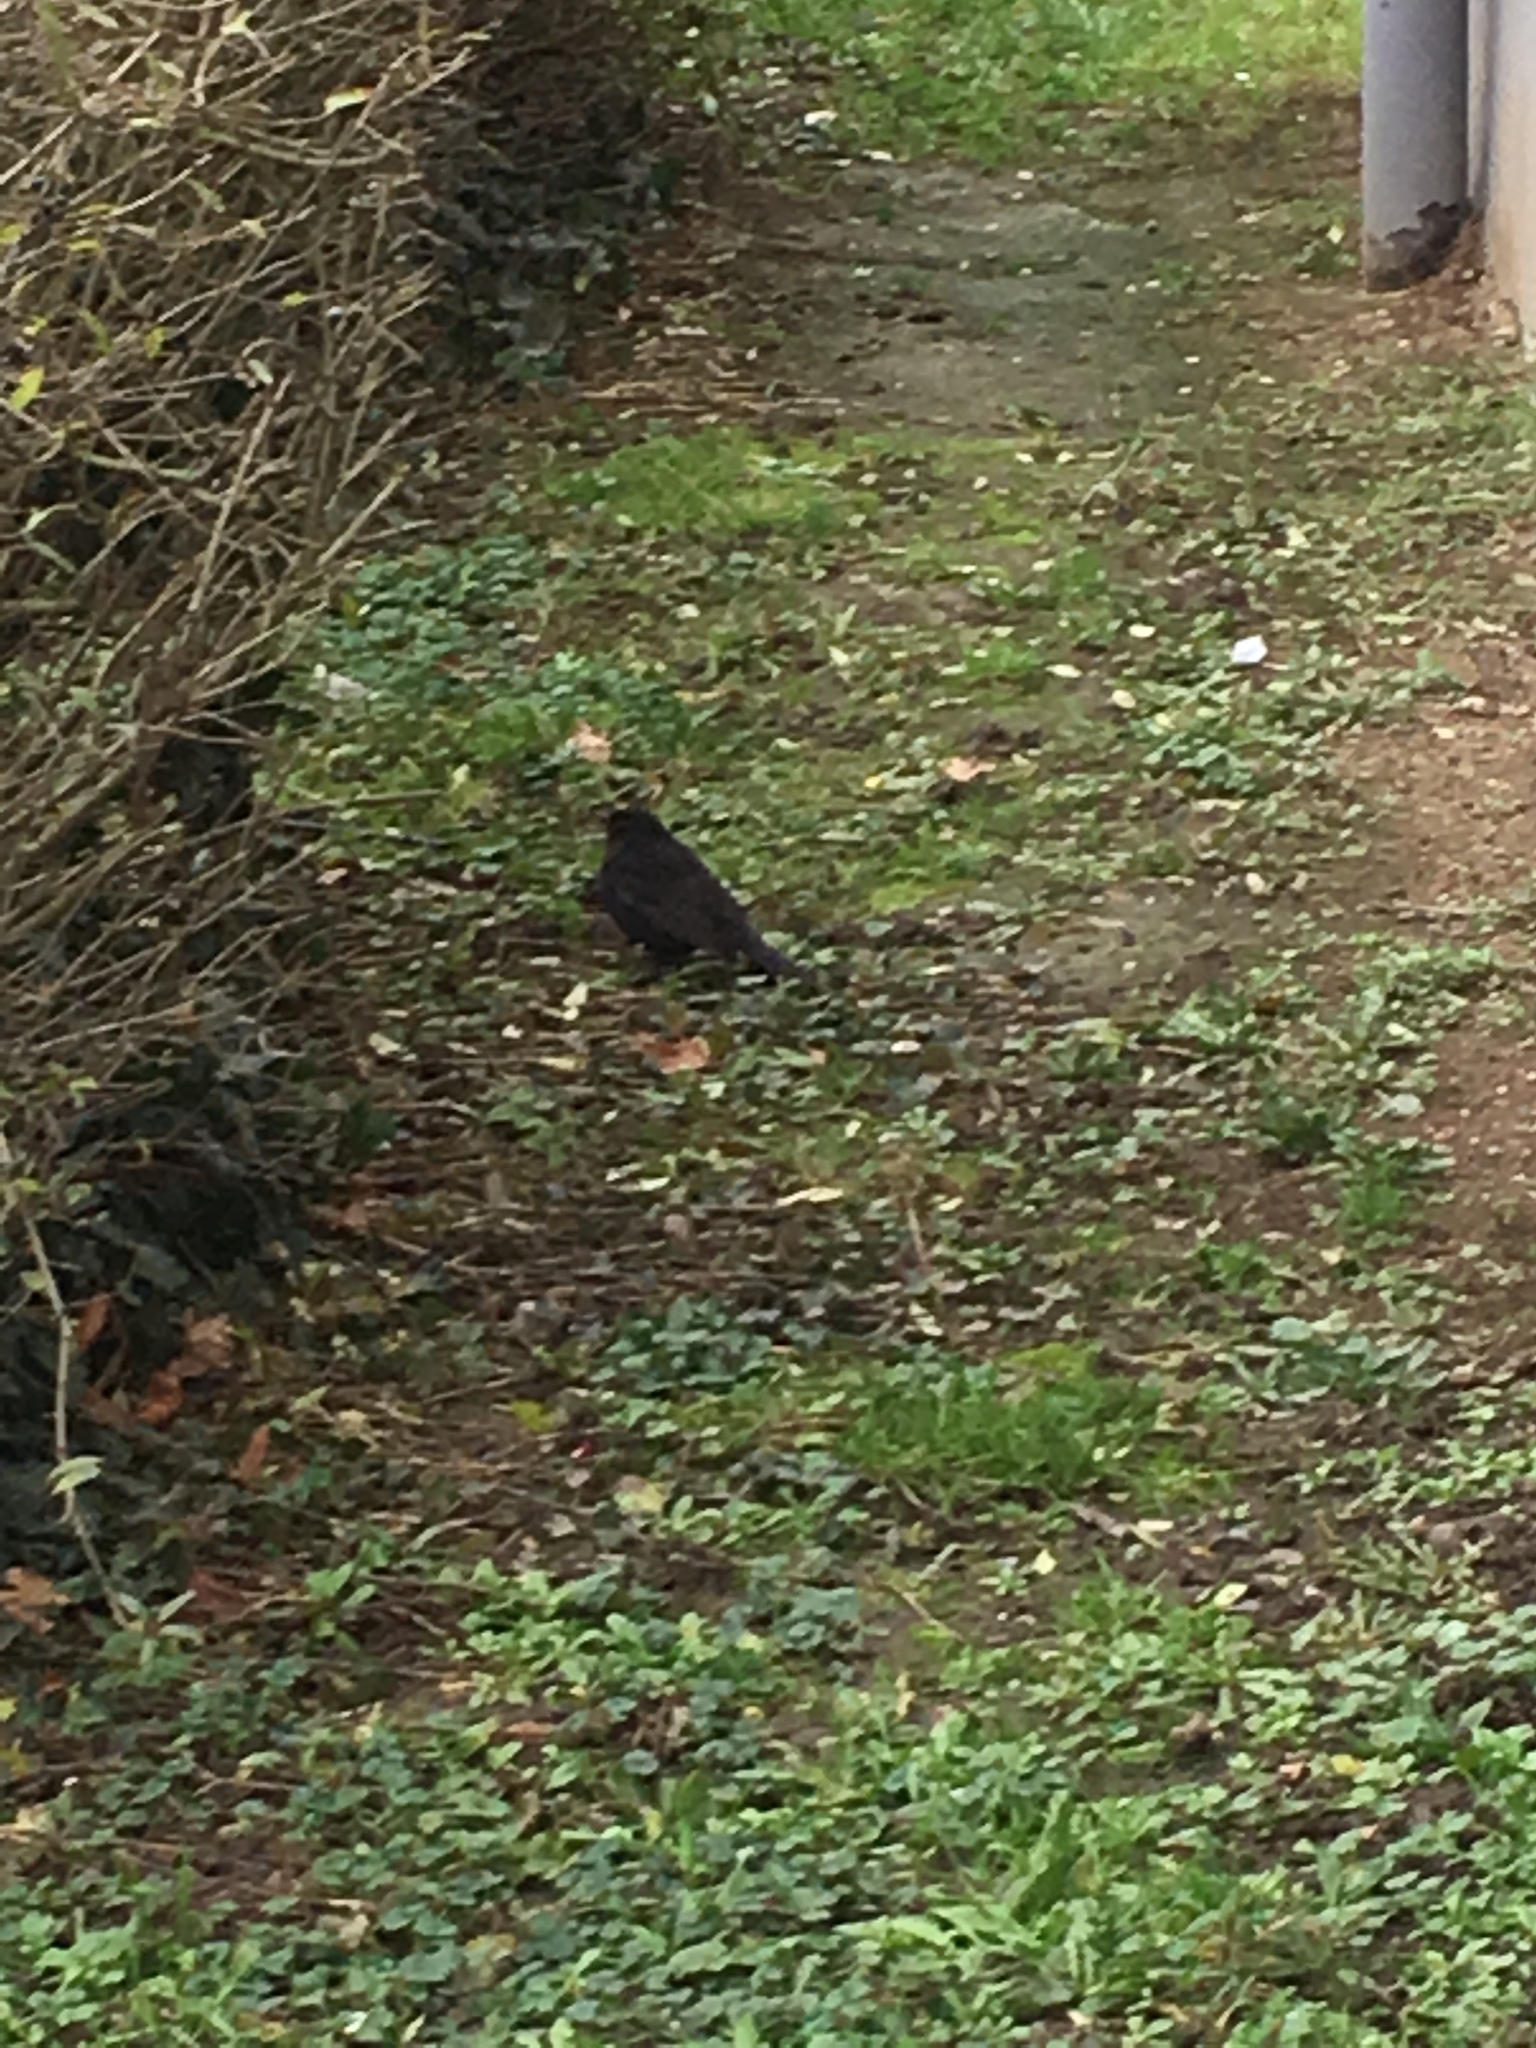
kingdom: Animalia
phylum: Chordata
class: Aves
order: Passeriformes
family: Turdidae
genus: Turdus
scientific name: Turdus merula
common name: Common blackbird
